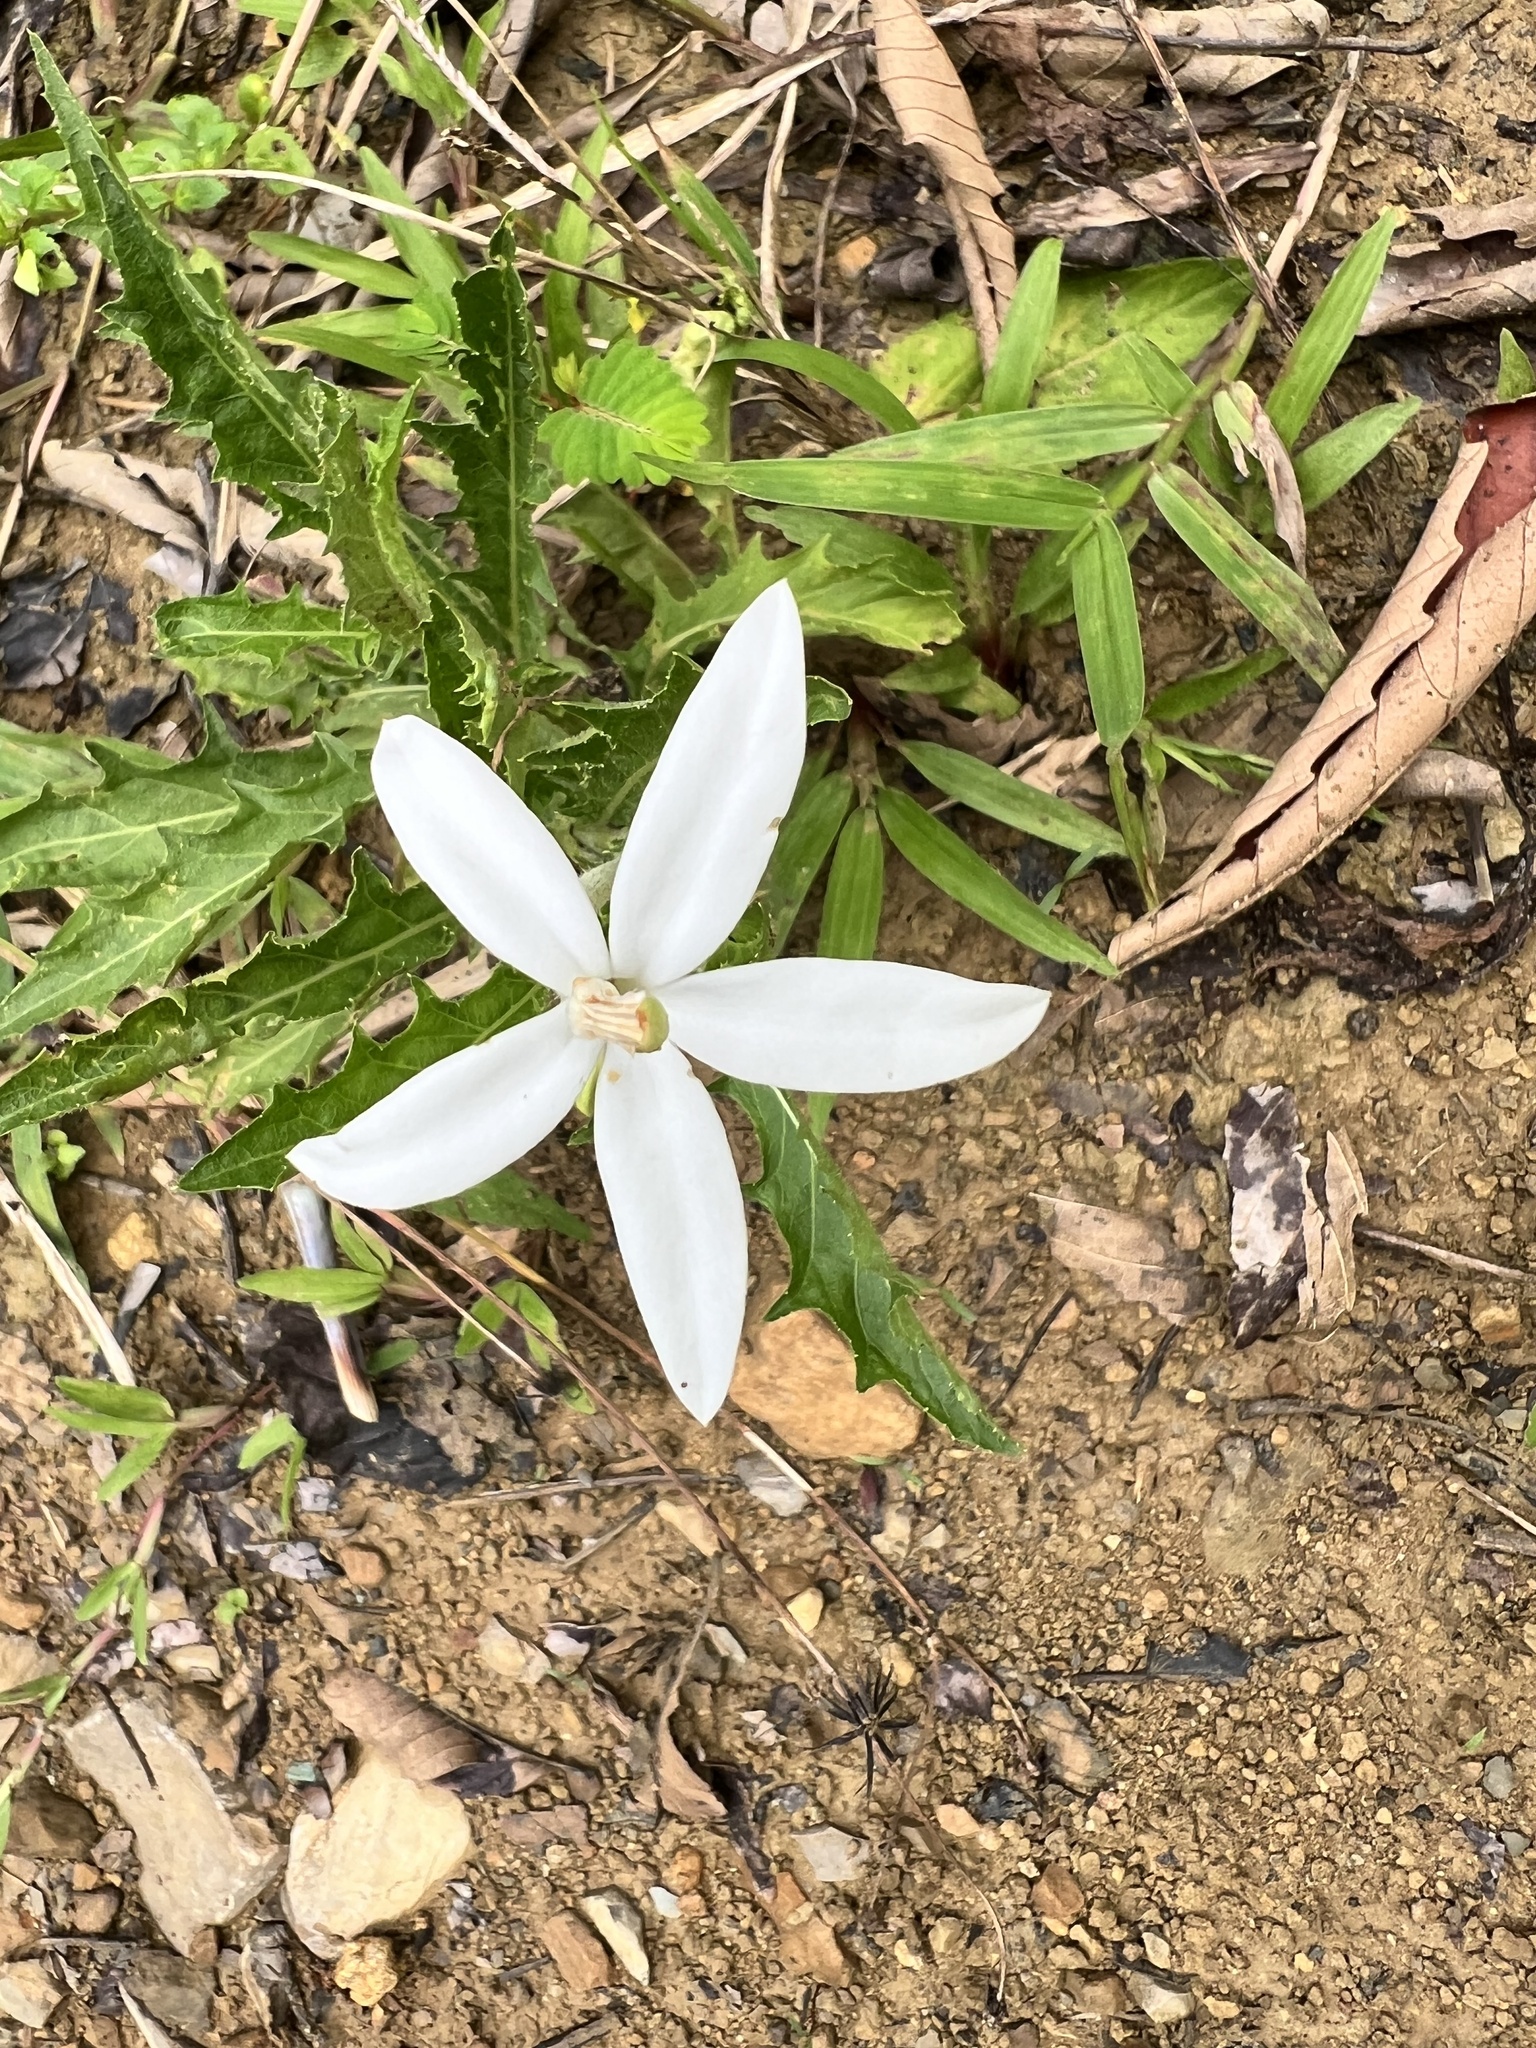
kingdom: Plantae
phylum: Tracheophyta
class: Magnoliopsida
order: Asterales
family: Campanulaceae
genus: Hippobroma
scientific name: Hippobroma longiflora
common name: Madamfate
